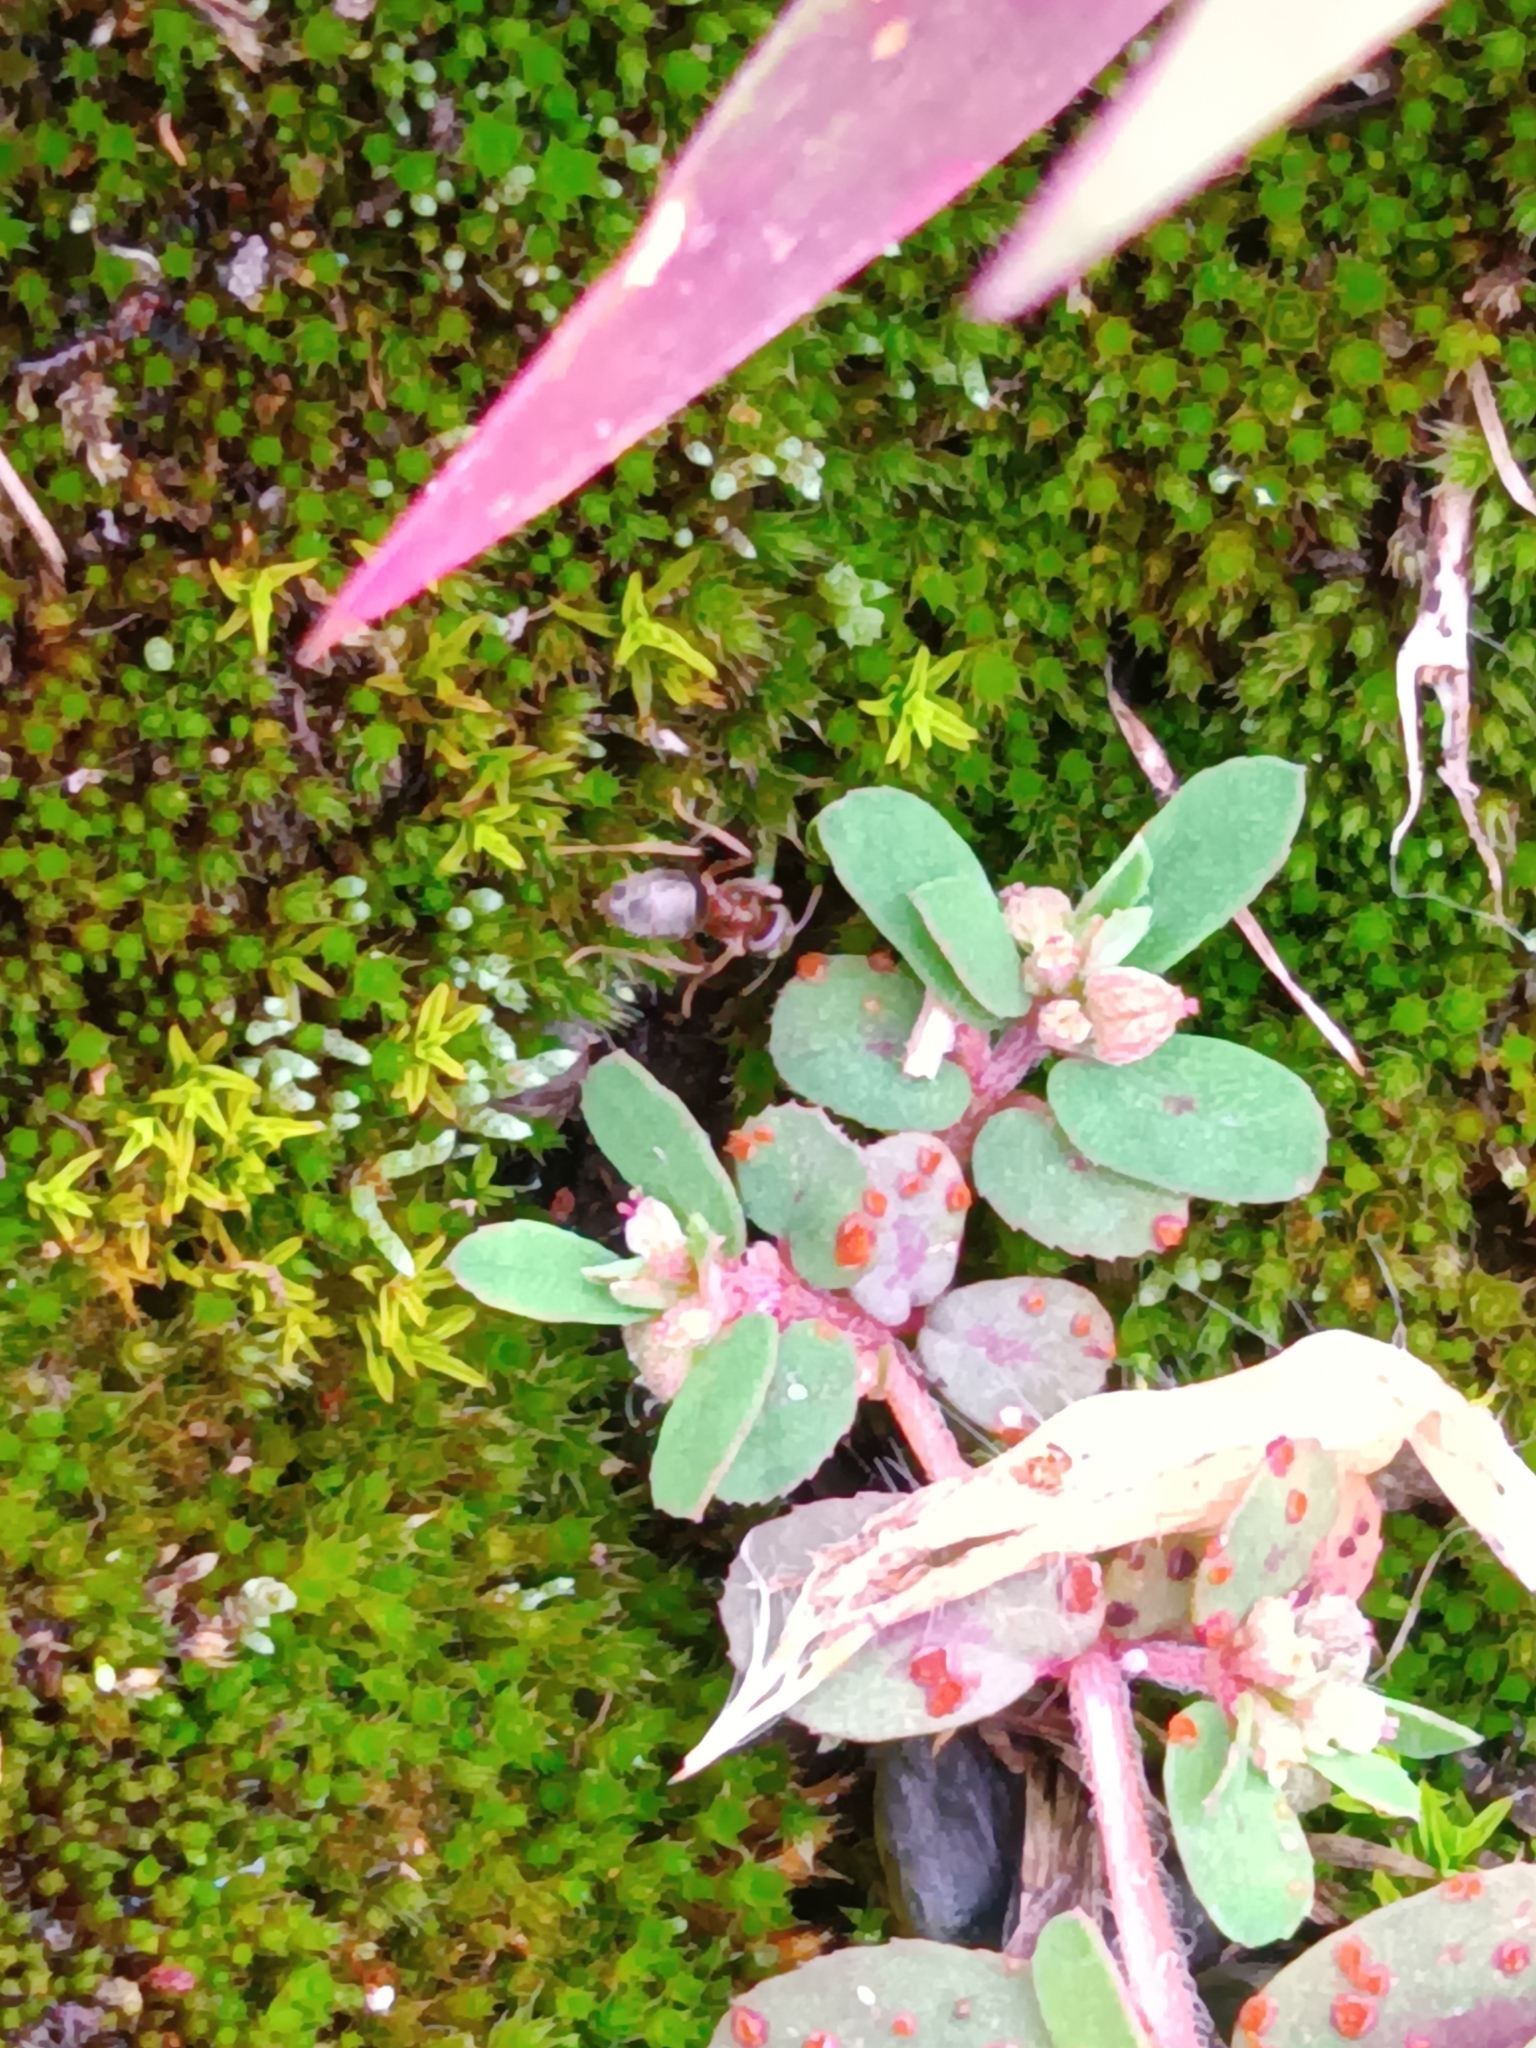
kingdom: Plantae
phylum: Tracheophyta
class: Magnoliopsida
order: Malpighiales
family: Euphorbiaceae
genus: Euphorbia
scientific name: Euphorbia maculata
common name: Spotted spurge
